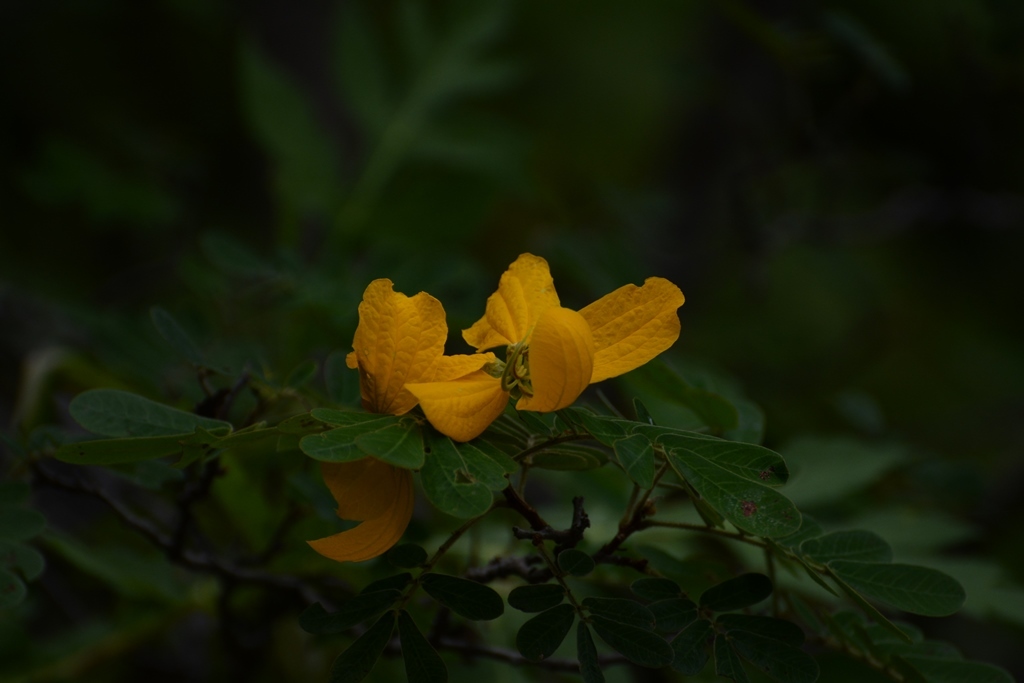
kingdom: Plantae
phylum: Tracheophyta
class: Magnoliopsida
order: Fabales
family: Fabaceae
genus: Senna
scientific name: Senna skinneri
